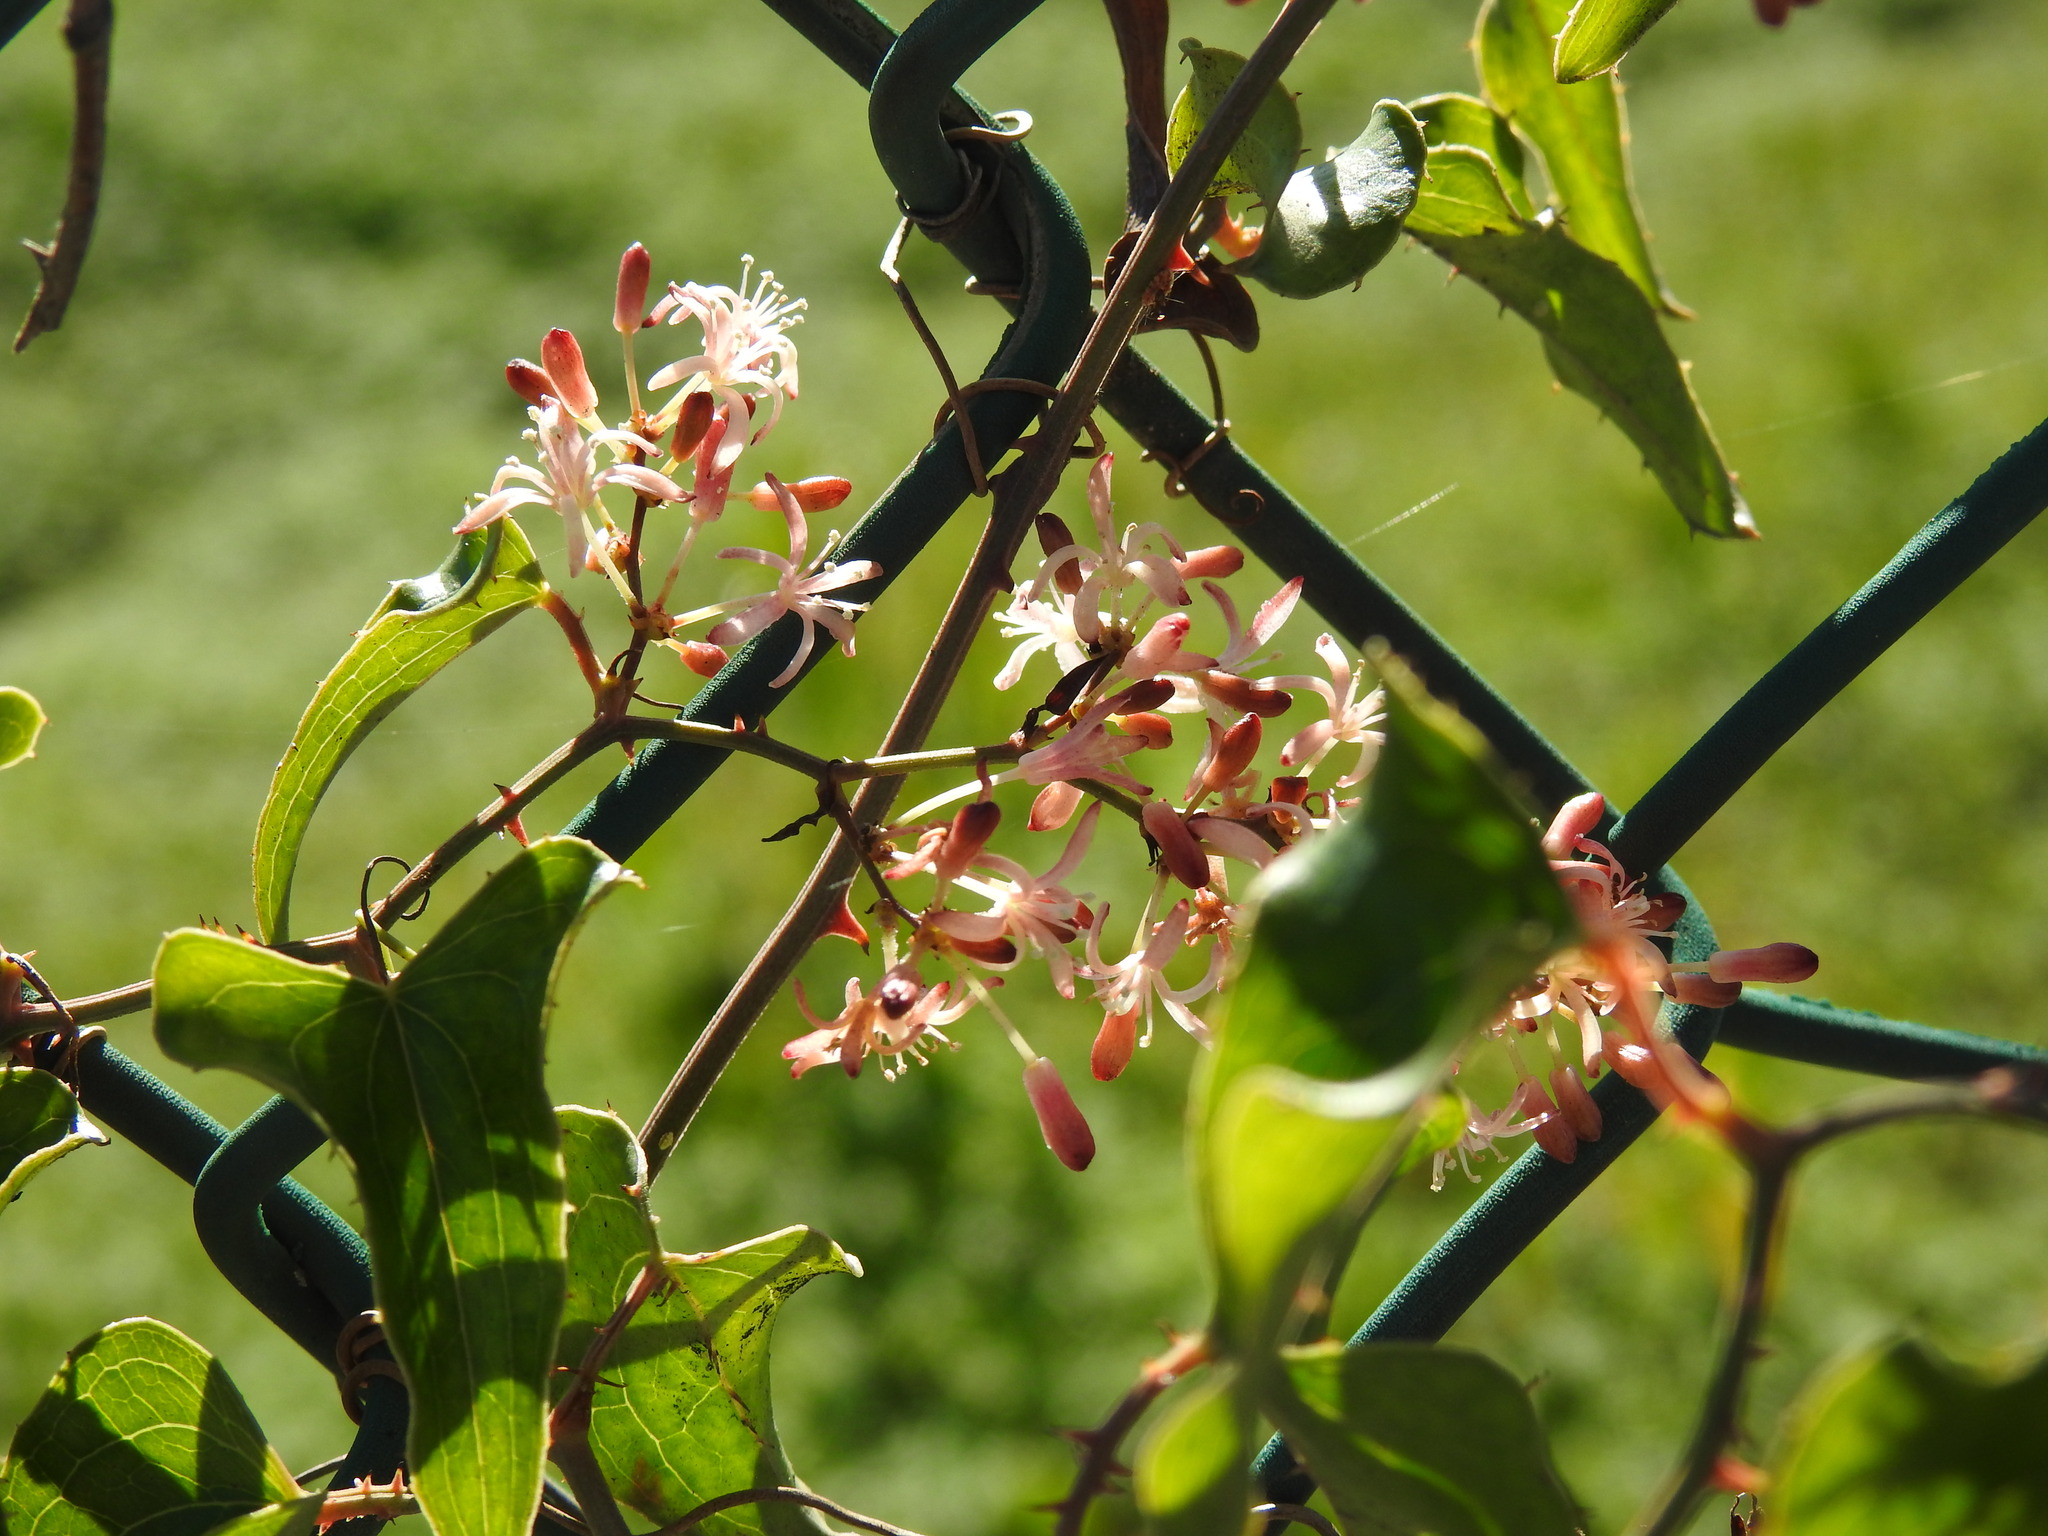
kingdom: Plantae
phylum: Tracheophyta
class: Liliopsida
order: Liliales
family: Smilacaceae
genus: Smilax
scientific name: Smilax aspera
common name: Common smilax
